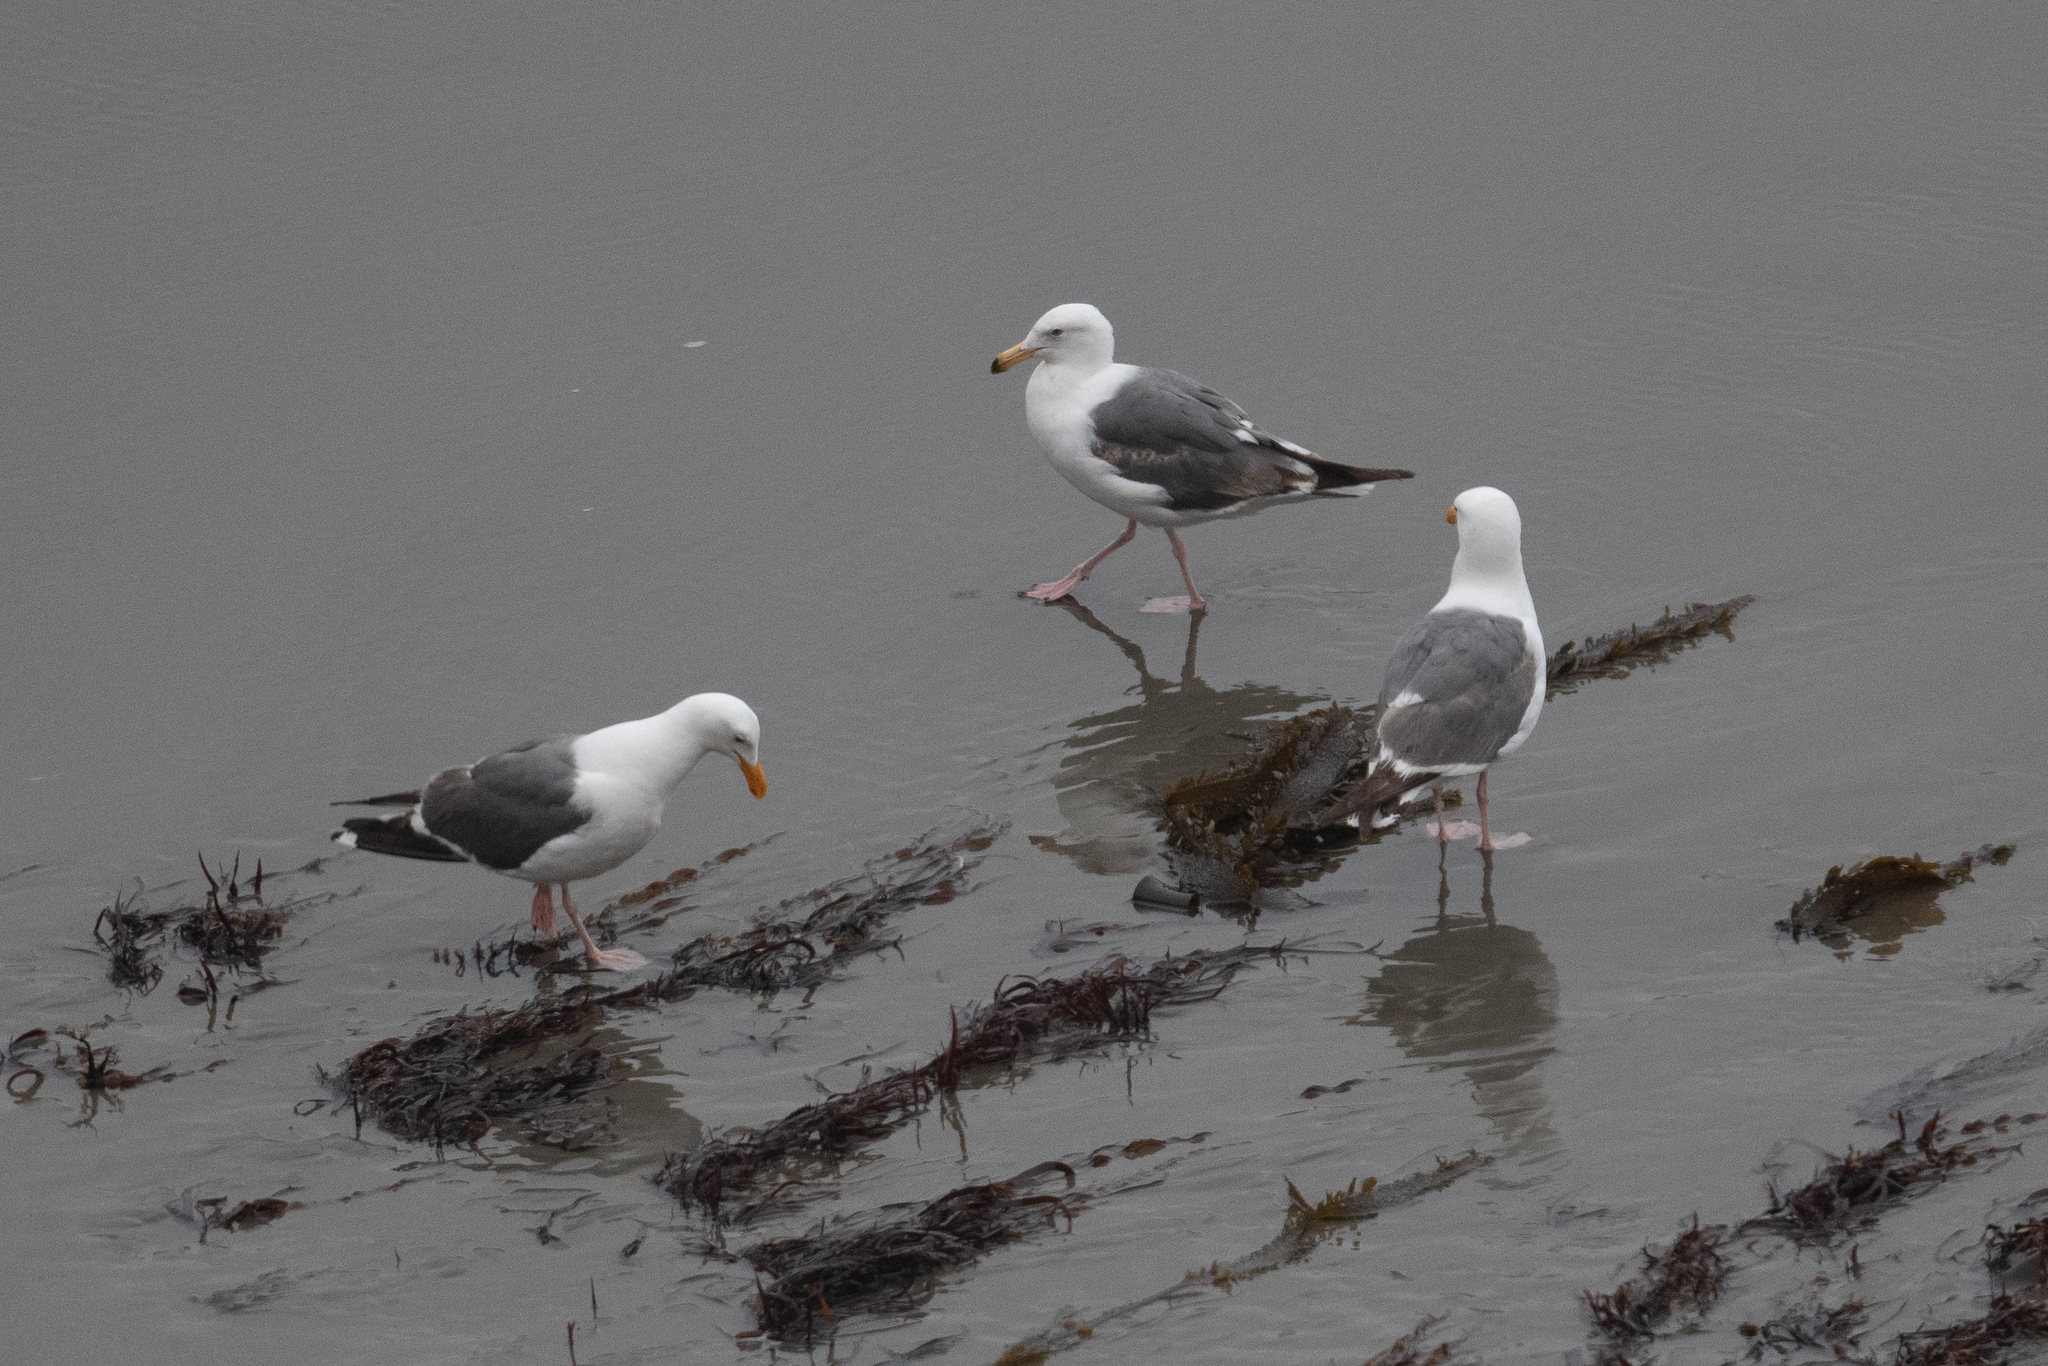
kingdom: Animalia
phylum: Chordata
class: Aves
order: Charadriiformes
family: Laridae
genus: Larus
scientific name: Larus occidentalis
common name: Western gull
